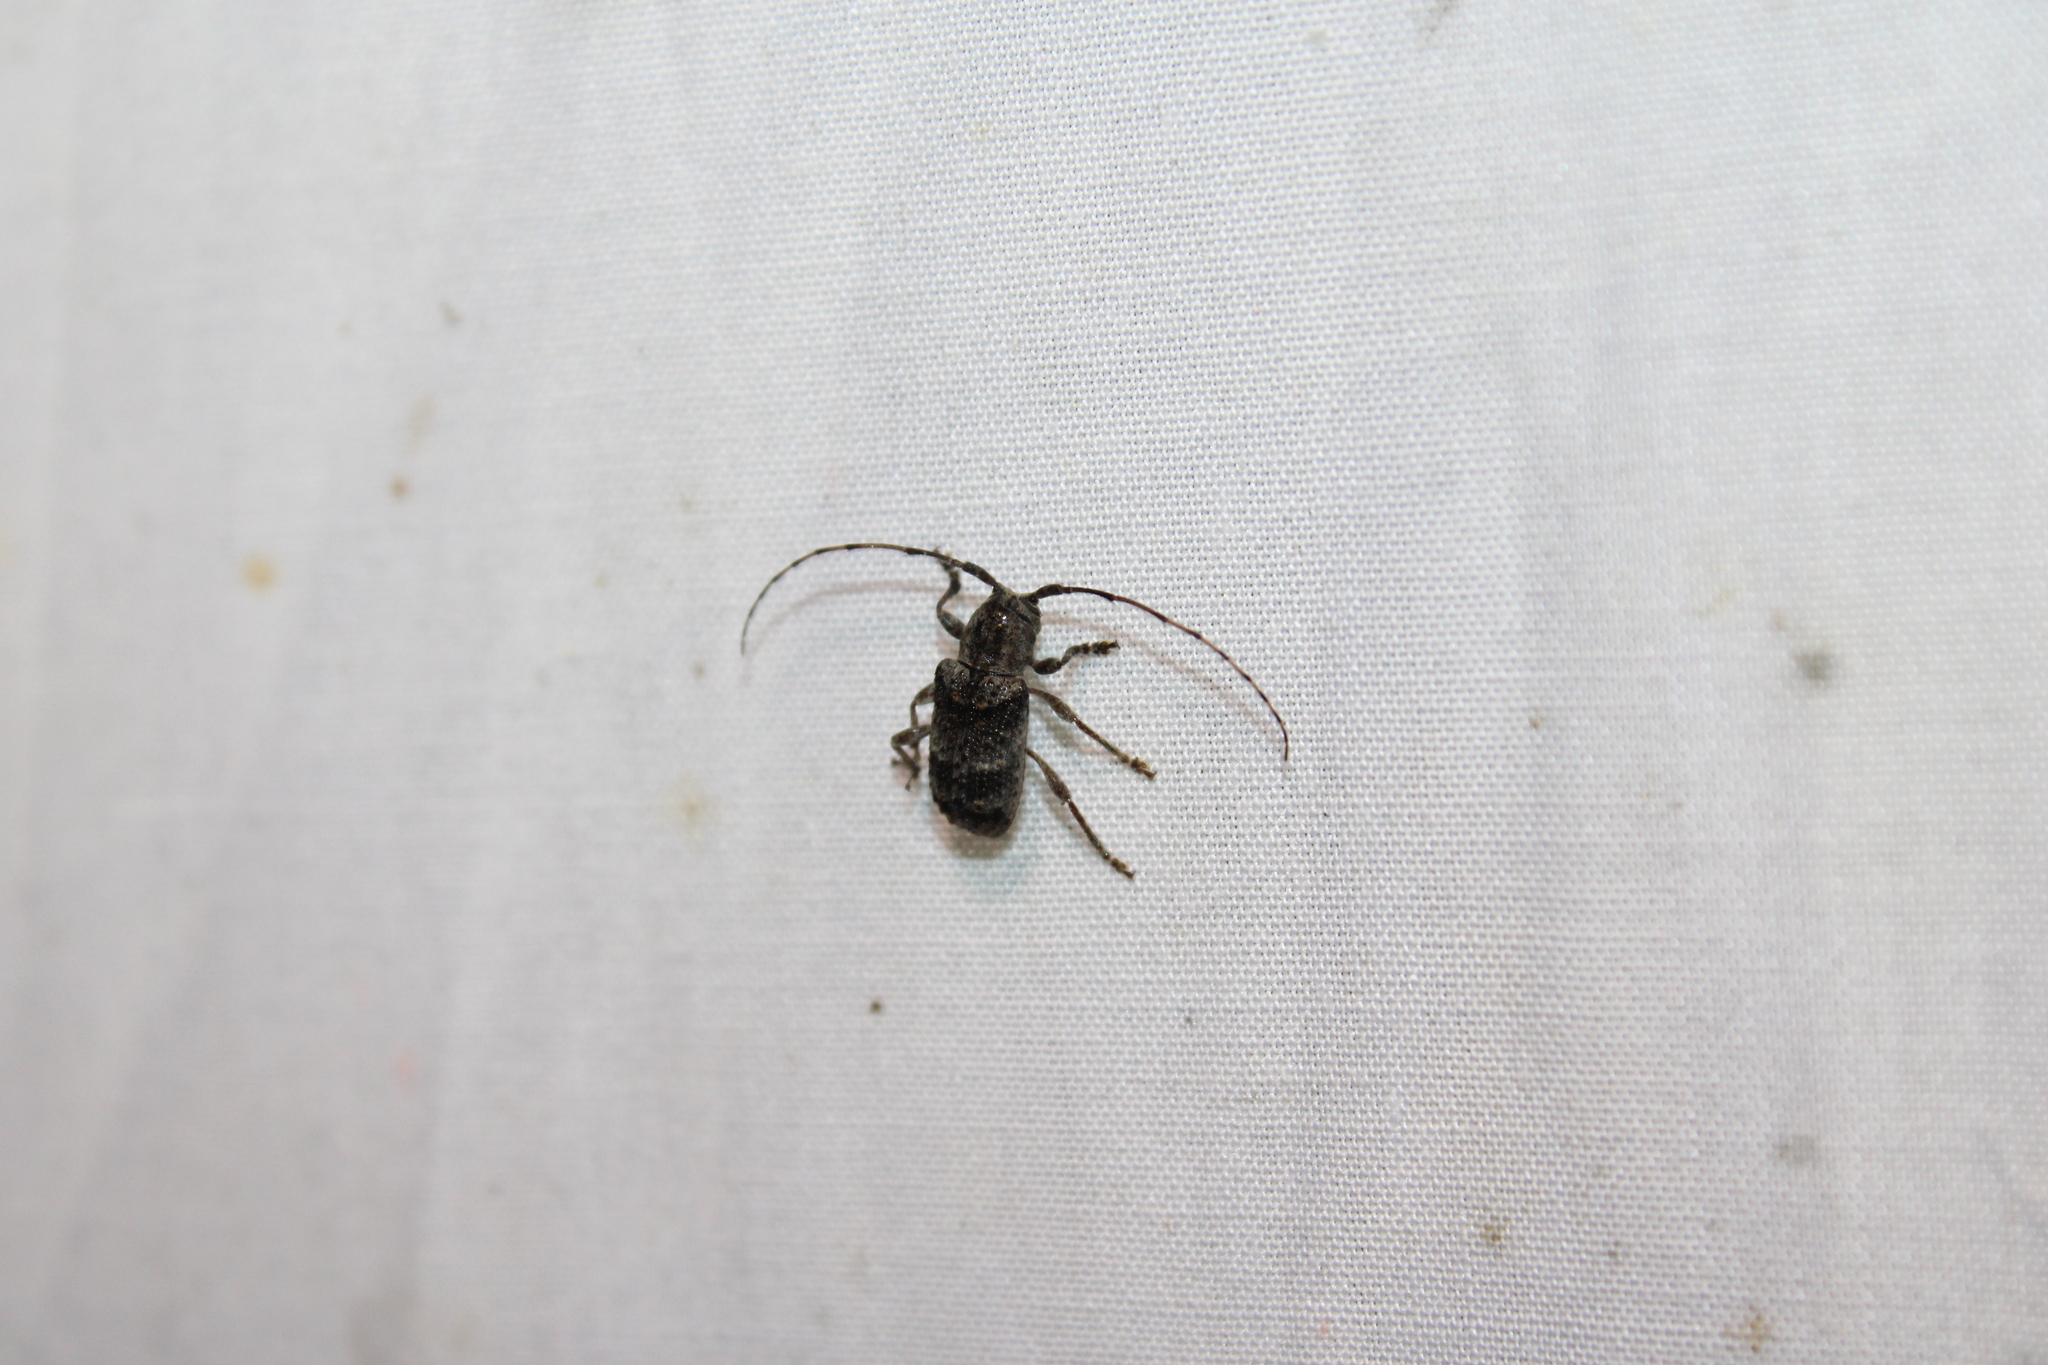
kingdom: Animalia
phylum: Arthropoda
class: Insecta
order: Coleoptera
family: Cerambycidae
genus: Ecyrus
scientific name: Ecyrus dasycerus
